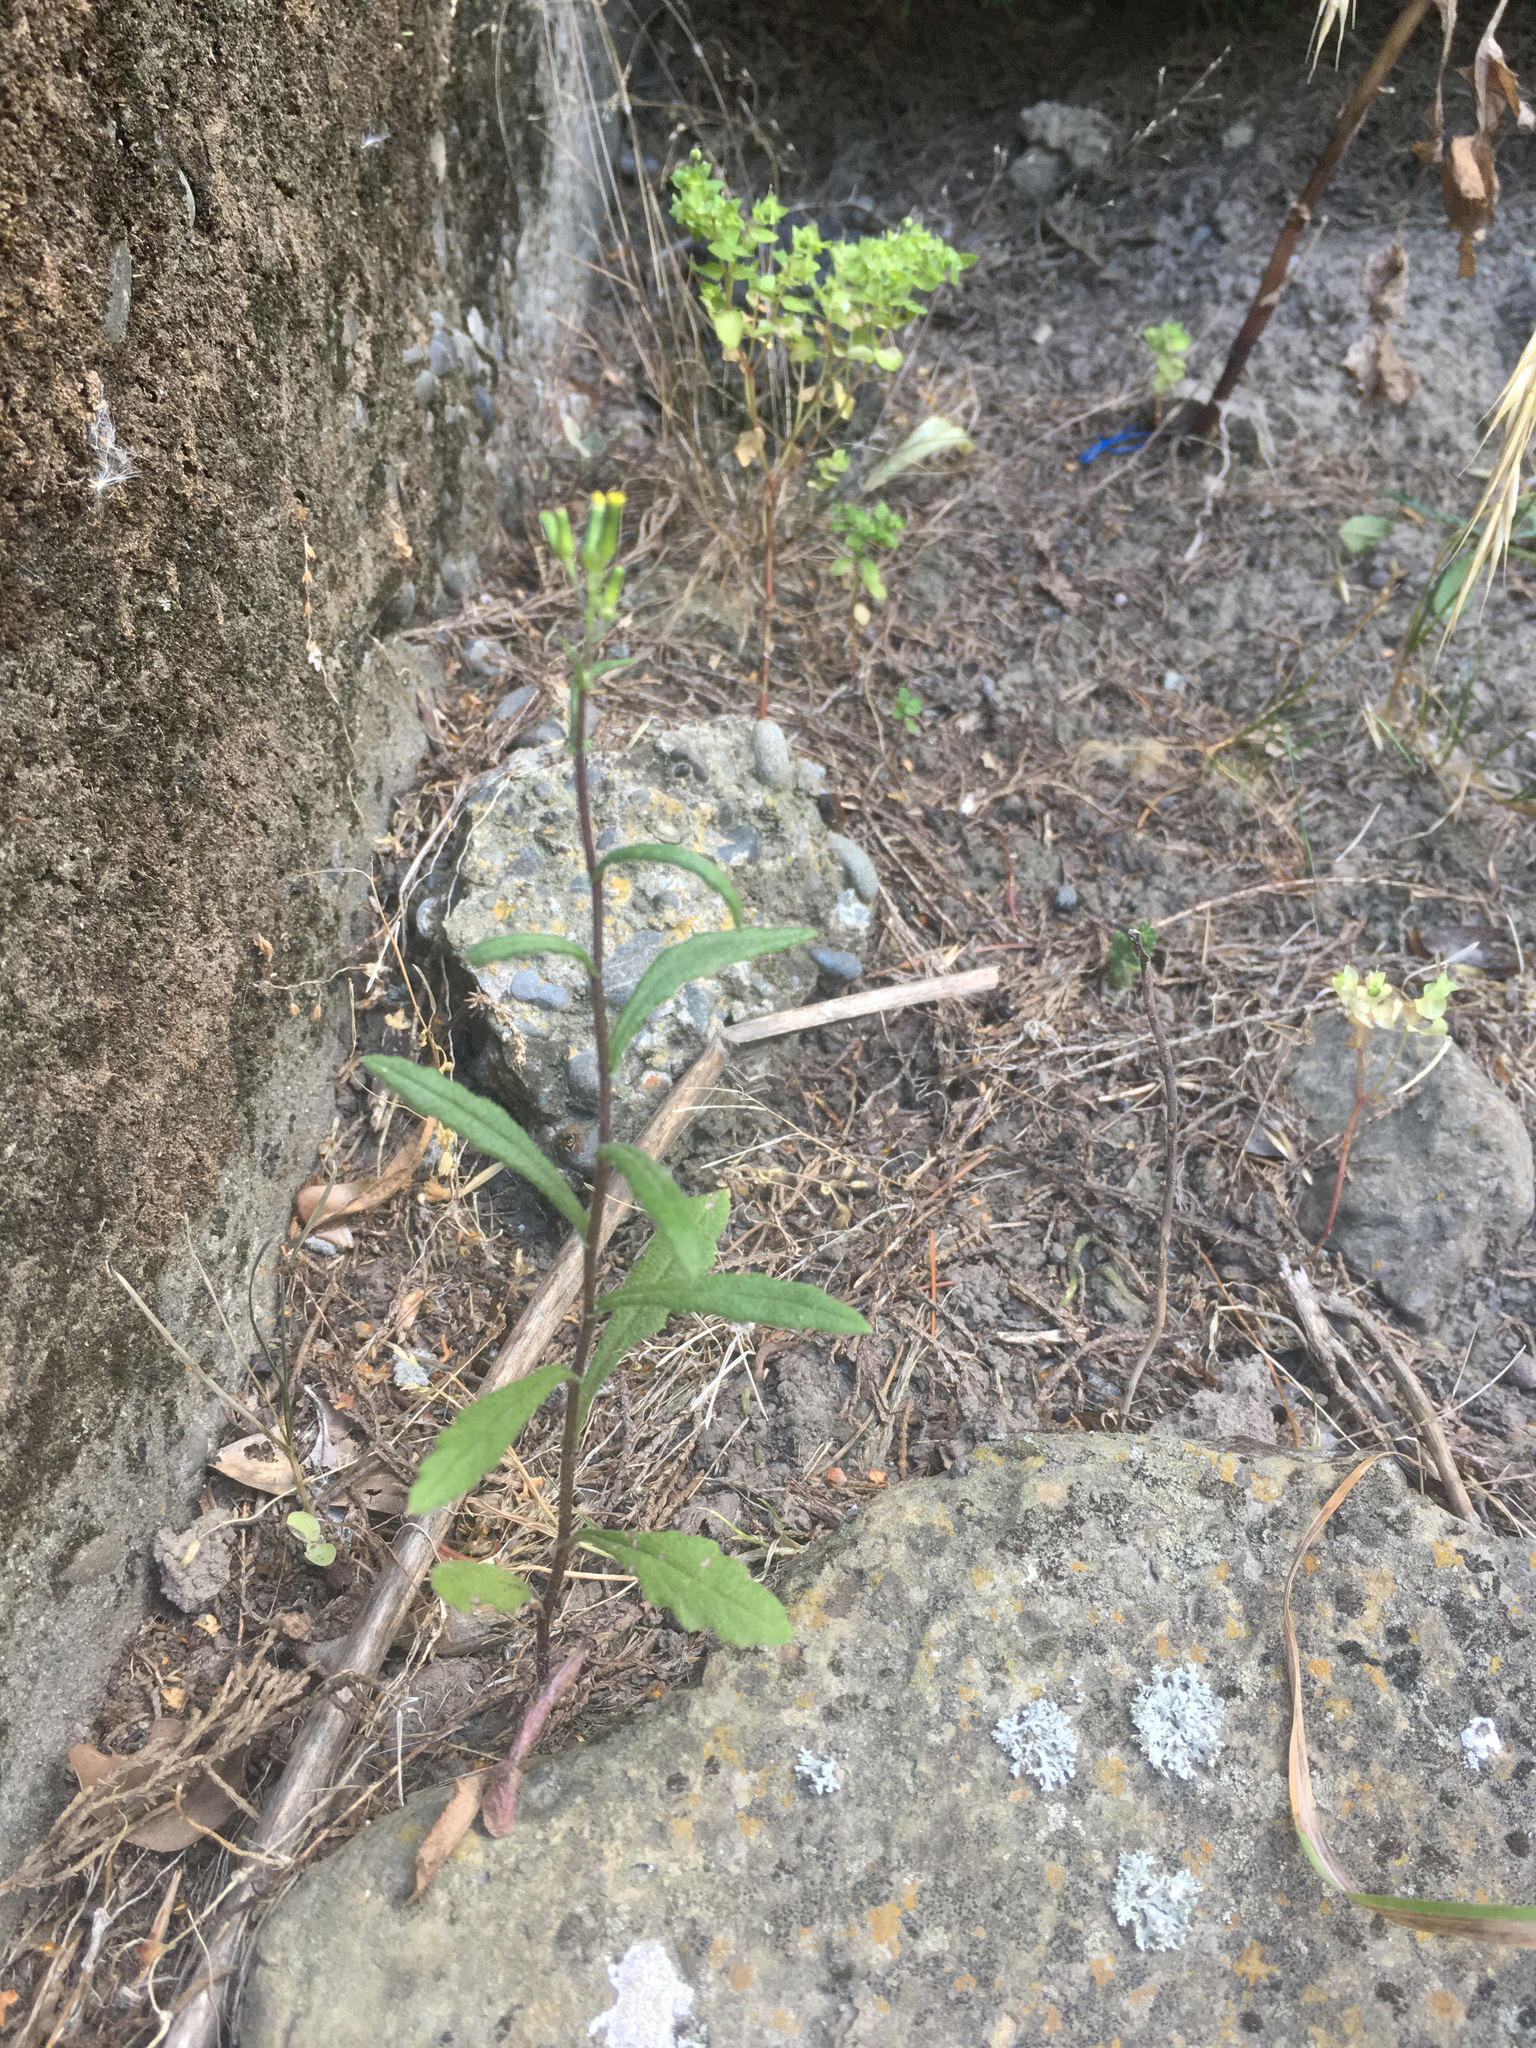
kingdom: Plantae
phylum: Tracheophyta
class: Magnoliopsida
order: Asterales
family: Asteraceae
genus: Senecio
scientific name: Senecio hispidulus
